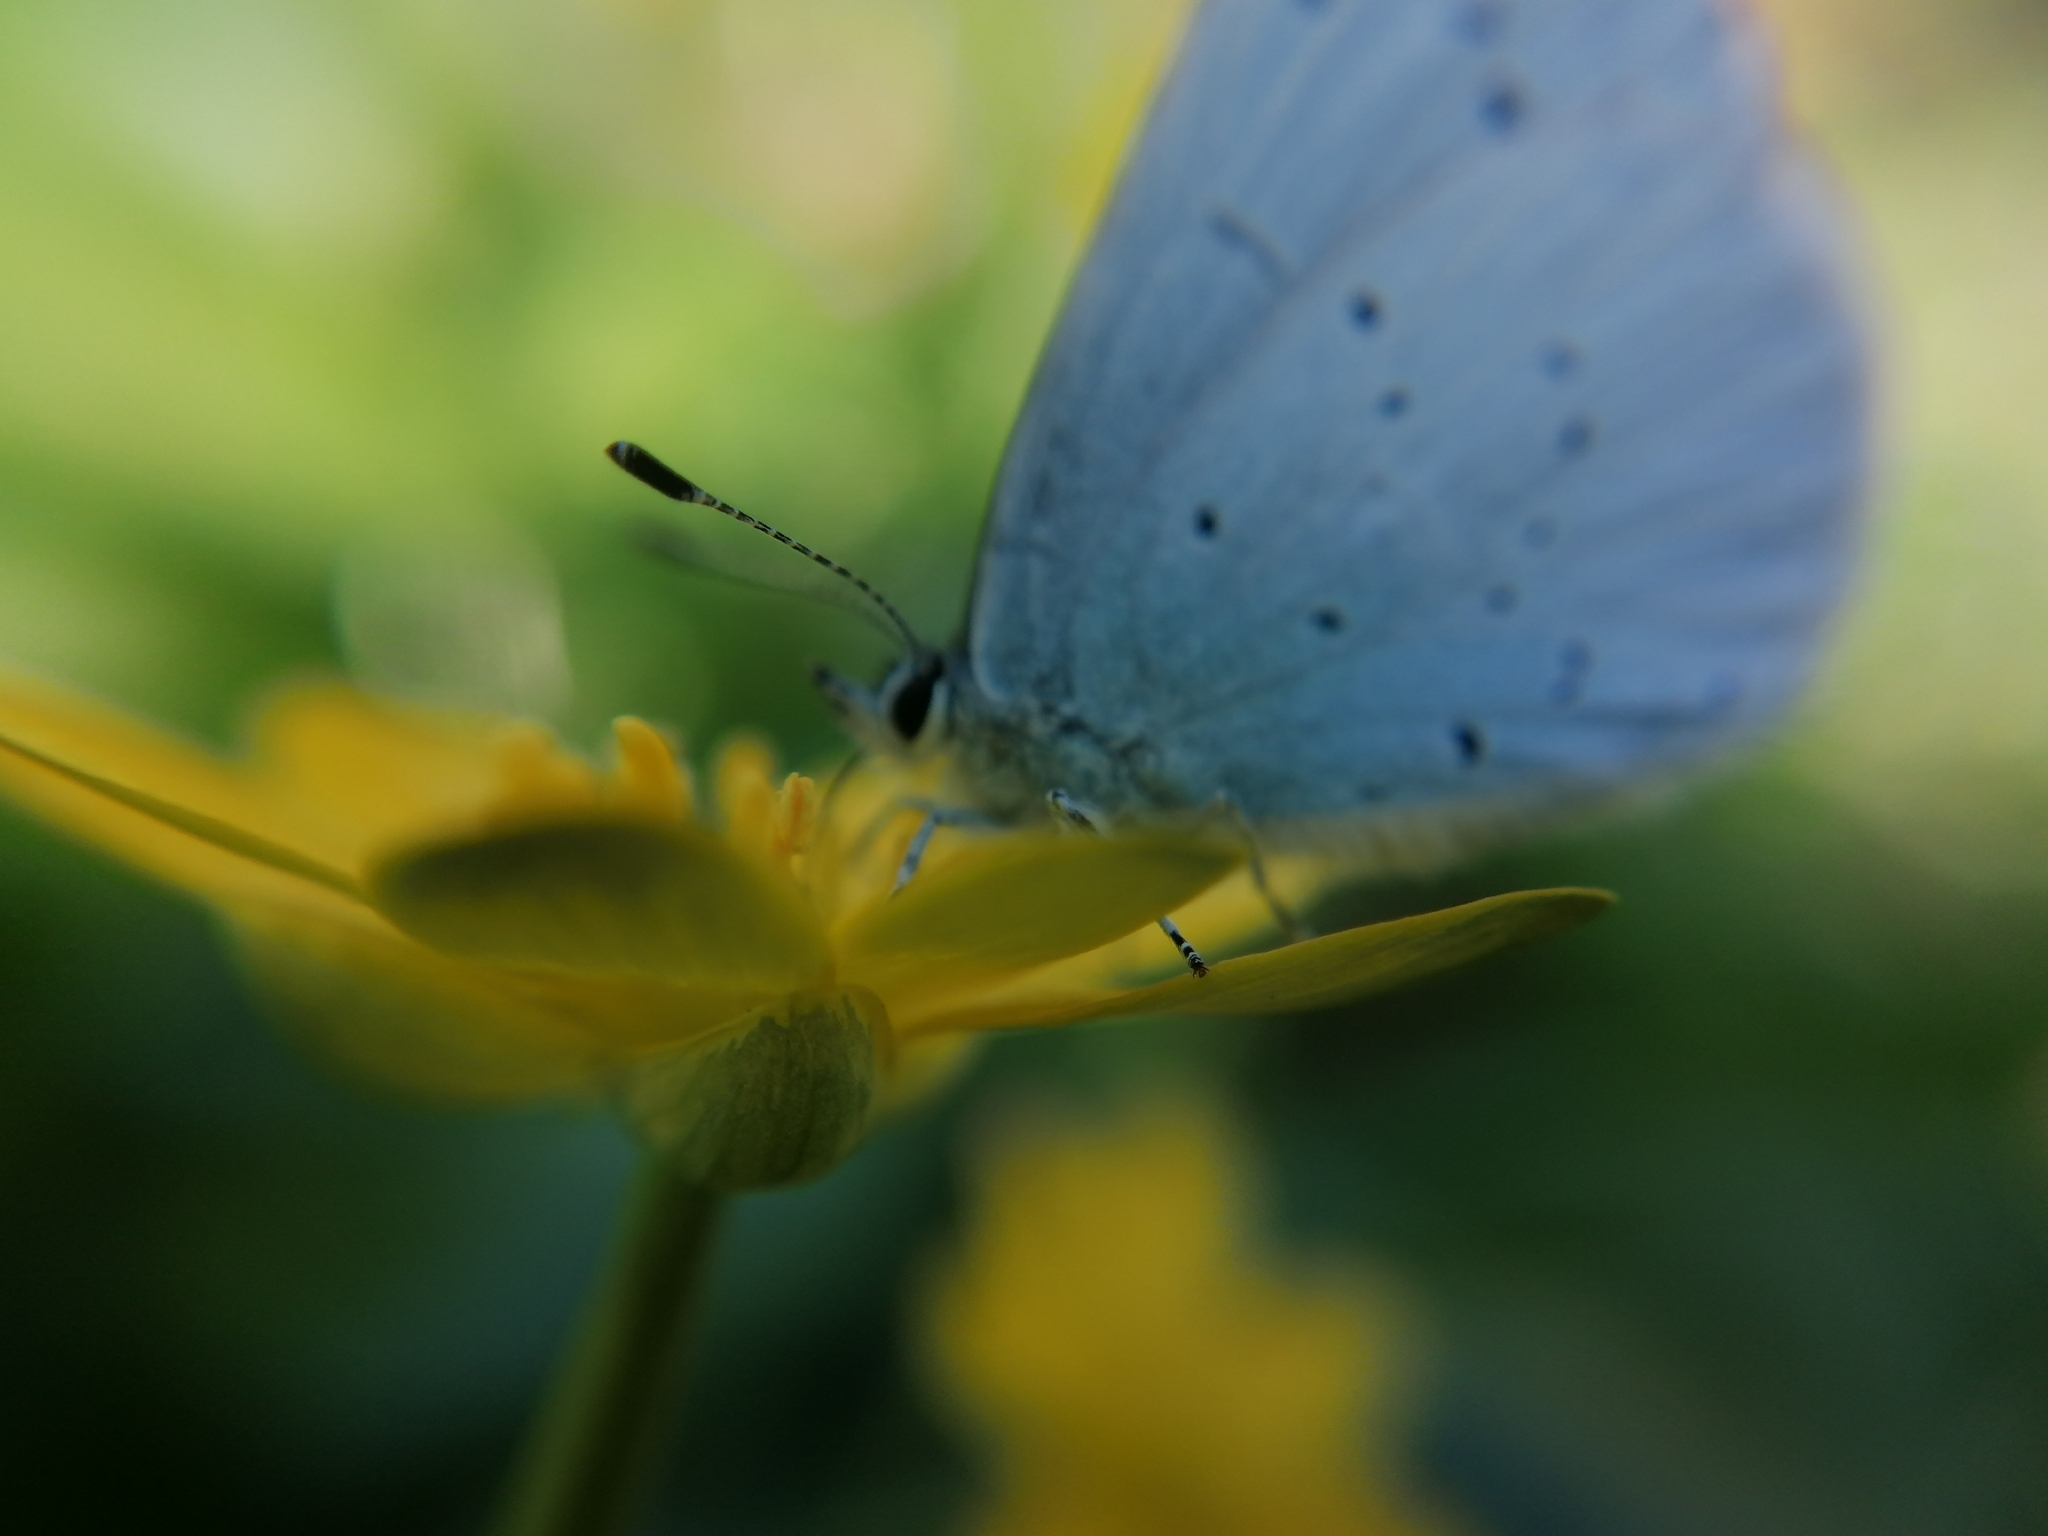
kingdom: Animalia
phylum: Arthropoda
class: Insecta
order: Lepidoptera
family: Lycaenidae
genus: Celastrina
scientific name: Celastrina argiolus
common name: Holly blue
